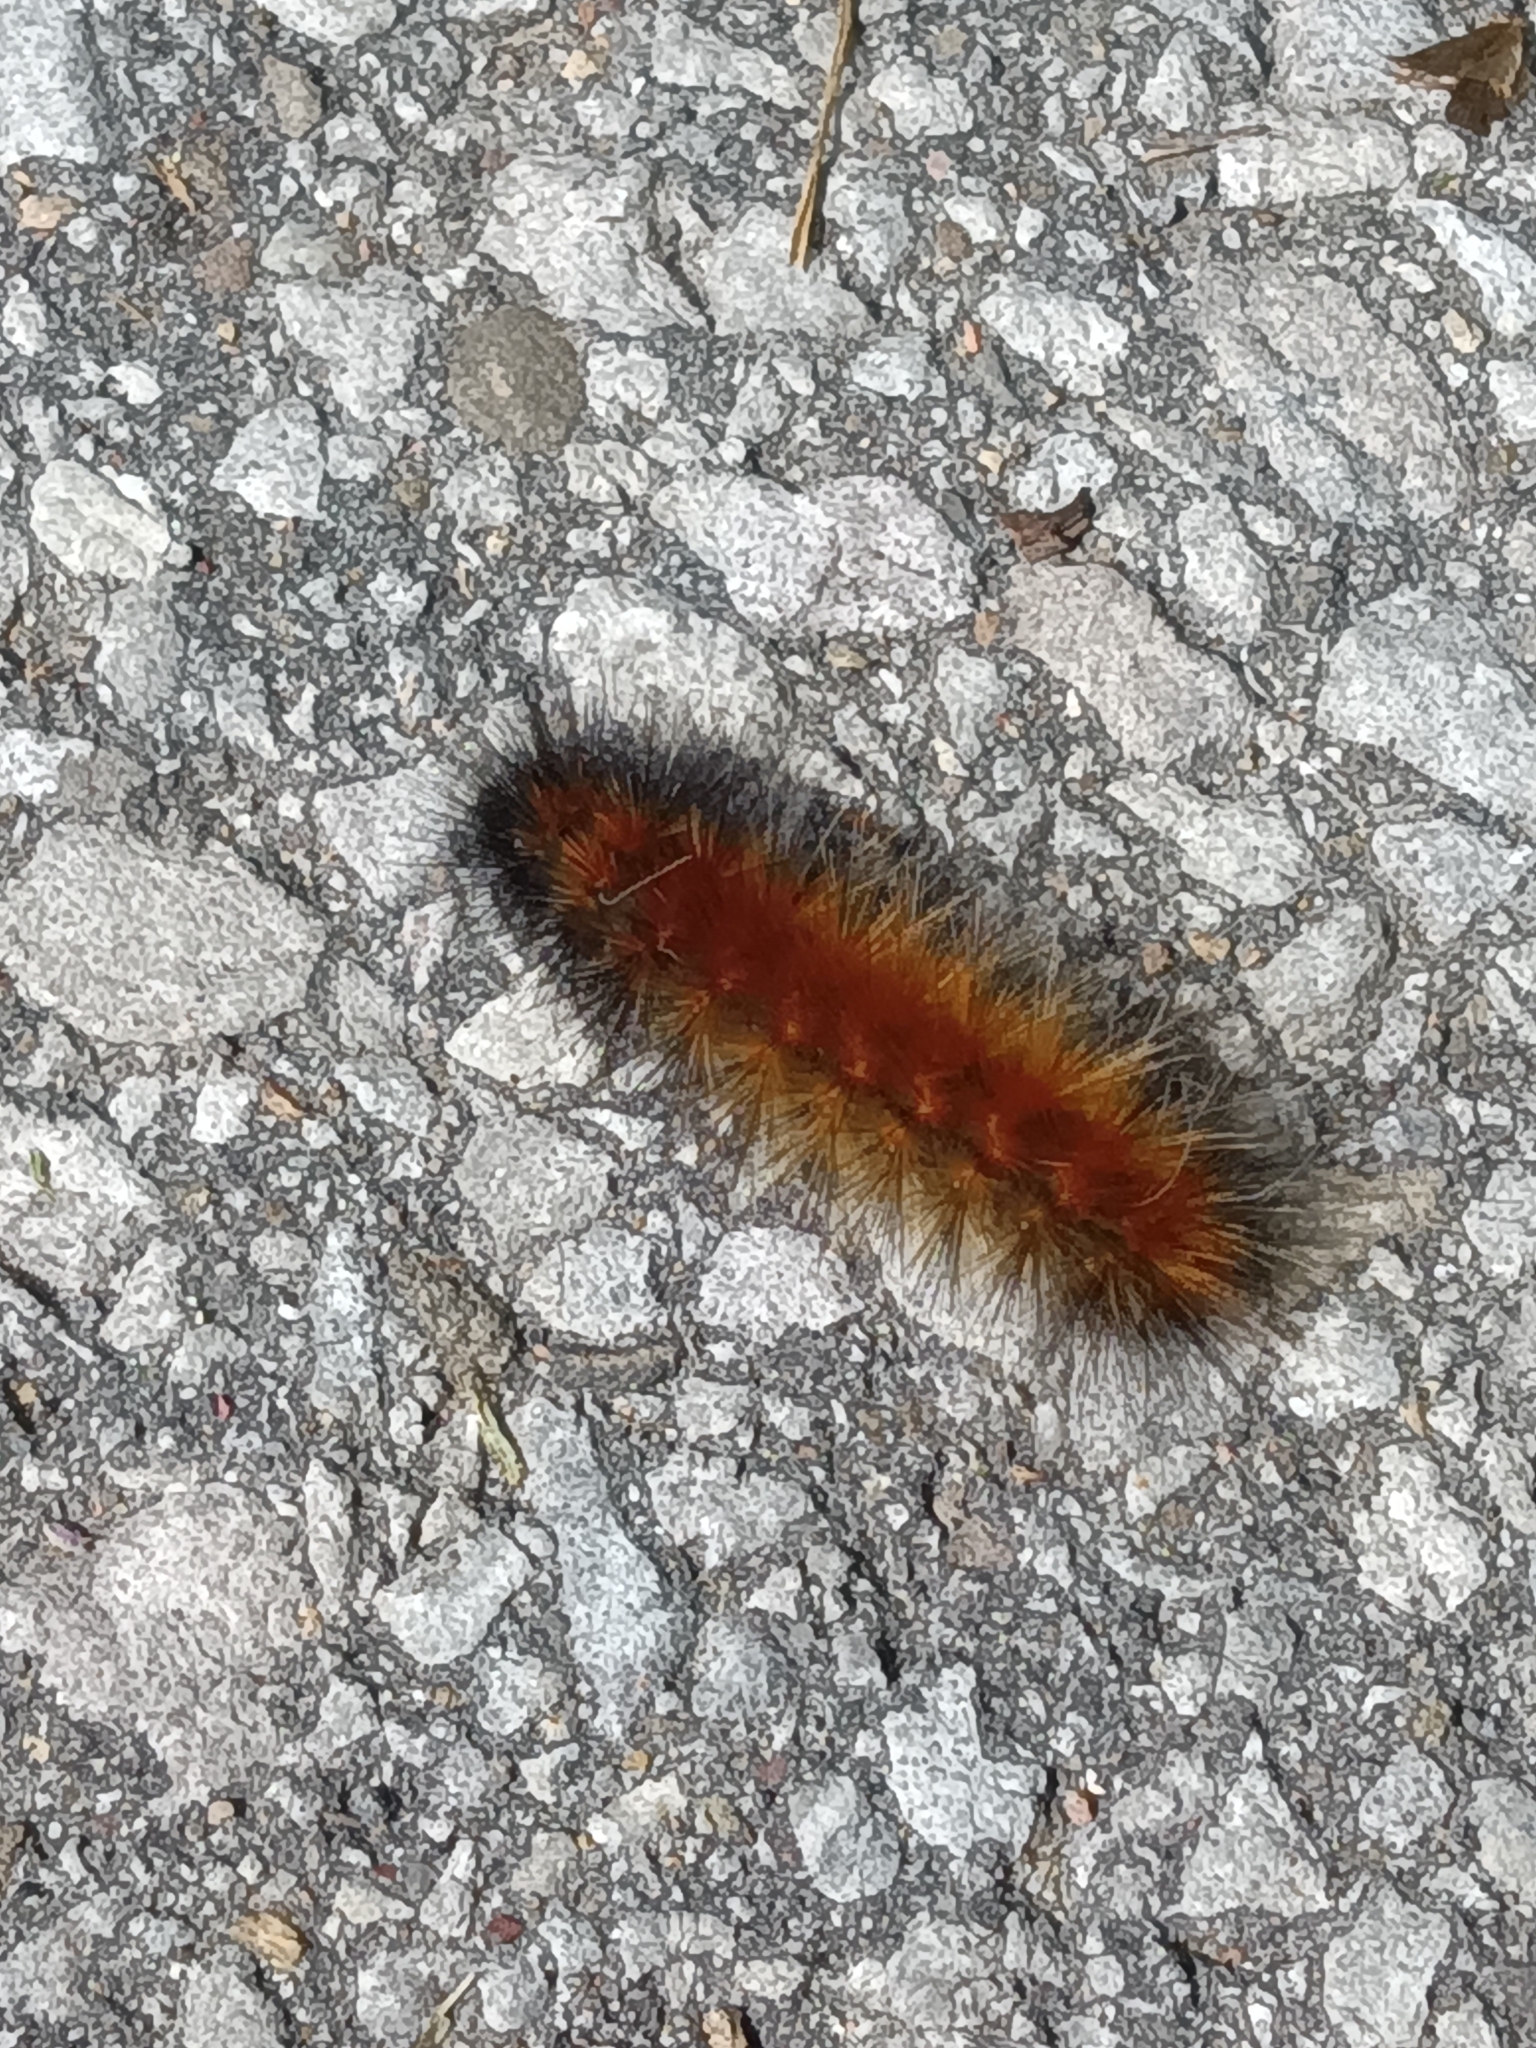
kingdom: Animalia
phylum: Arthropoda
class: Insecta
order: Lepidoptera
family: Erebidae
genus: Spilosoma
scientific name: Spilosoma virginica
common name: Virginia tiger moth
